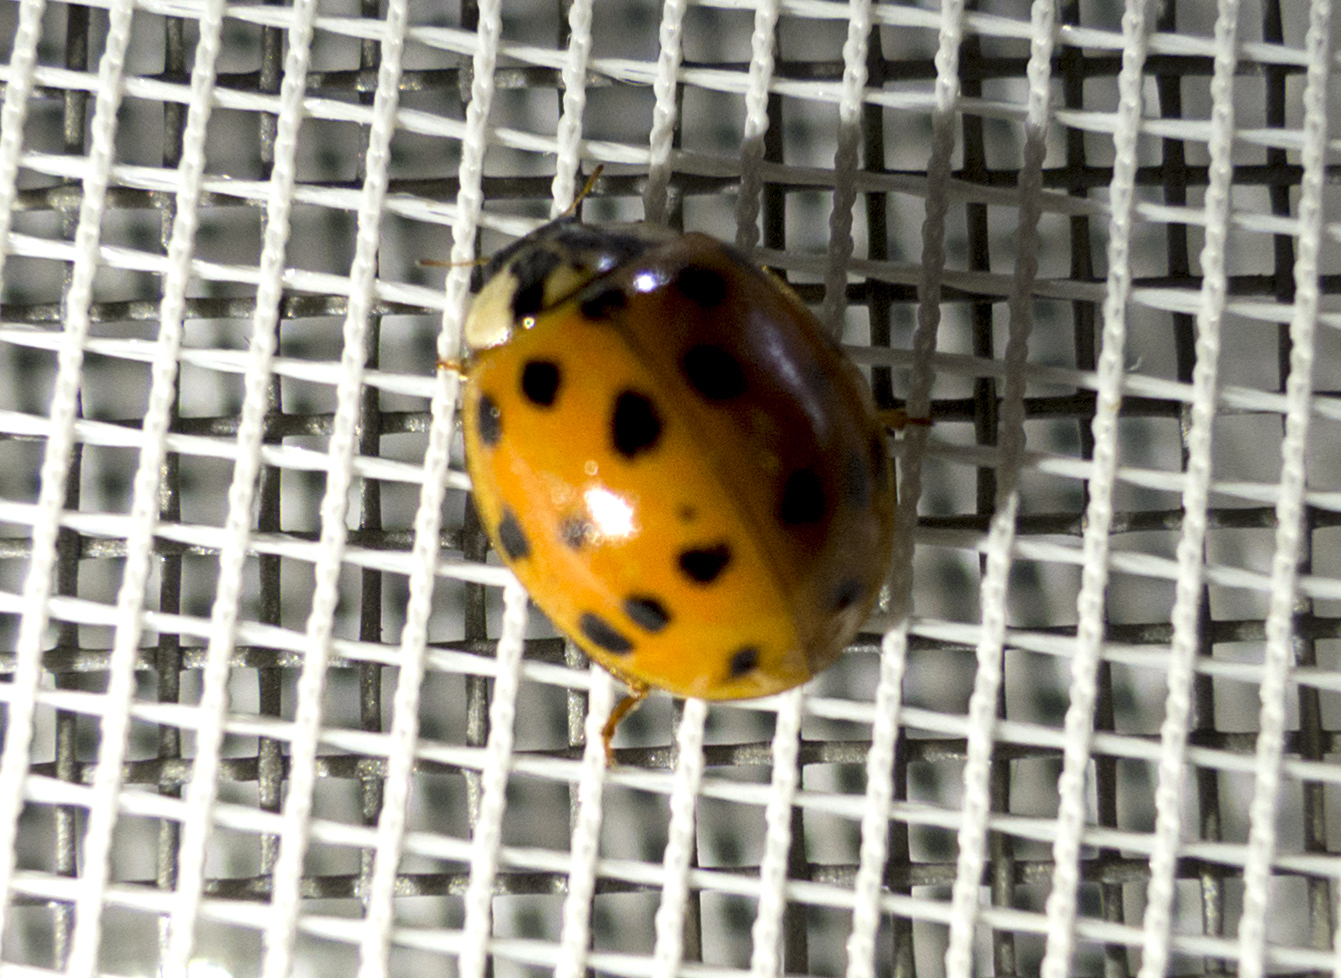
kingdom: Animalia
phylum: Arthropoda
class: Insecta
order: Coleoptera
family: Coccinellidae
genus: Harmonia
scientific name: Harmonia axyridis
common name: Harlequin ladybird
